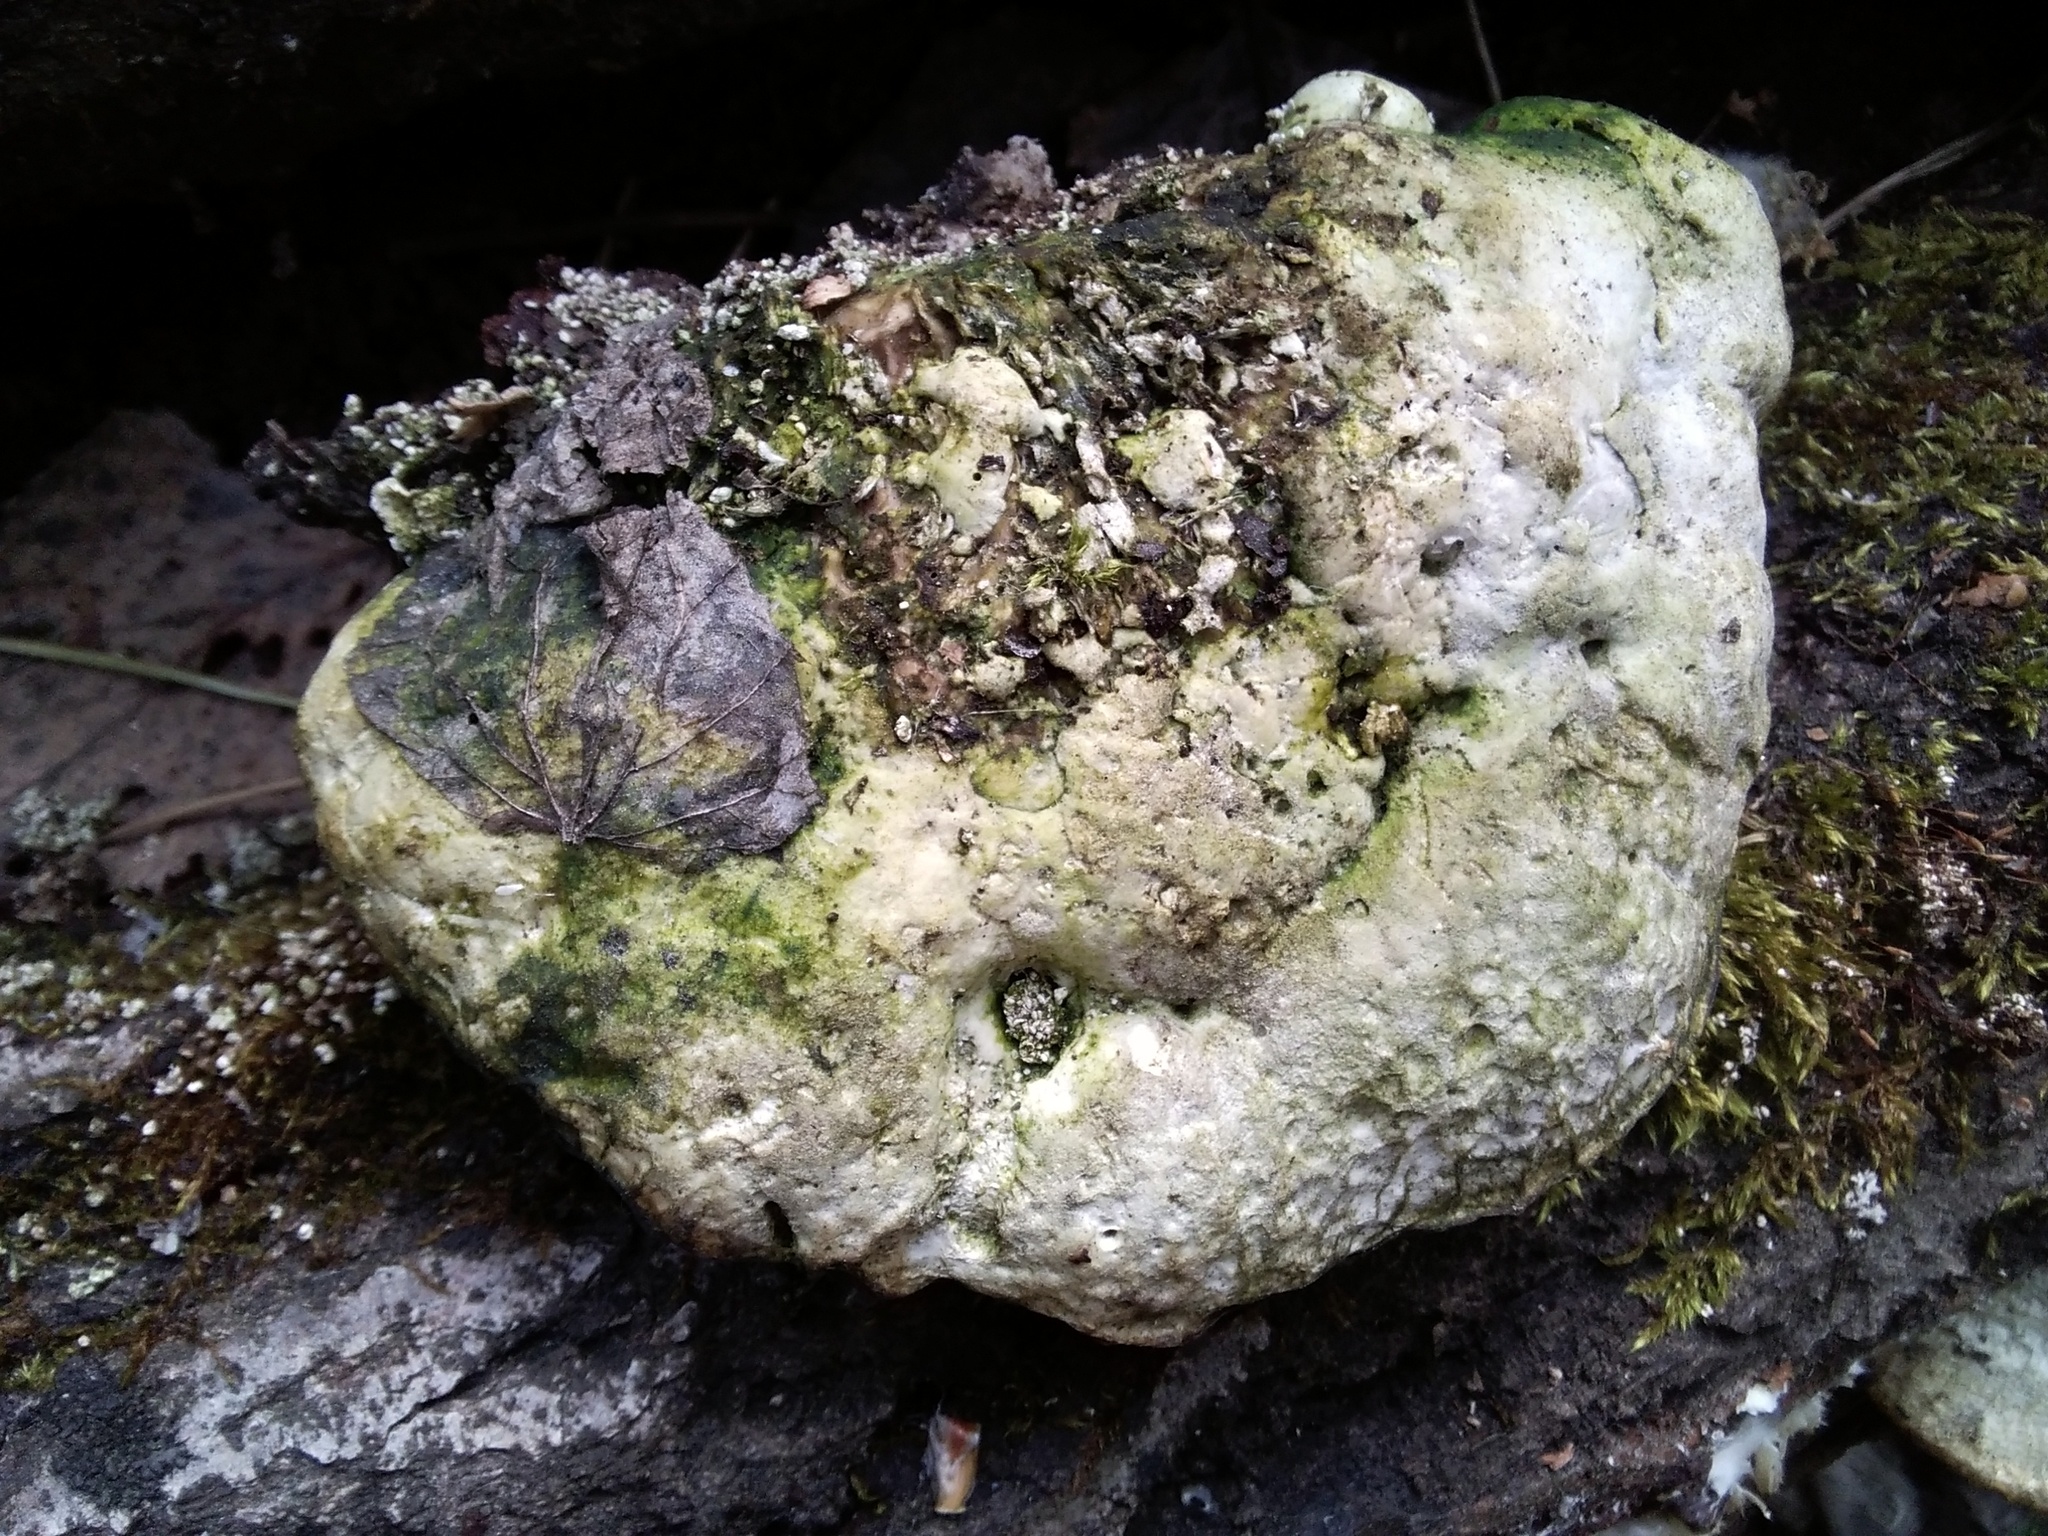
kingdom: Fungi
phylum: Basidiomycota
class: Agaricomycetes
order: Polyporales
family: Polyporaceae
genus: Trametes
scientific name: Trametes suaveolens
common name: Fragrant bracket
